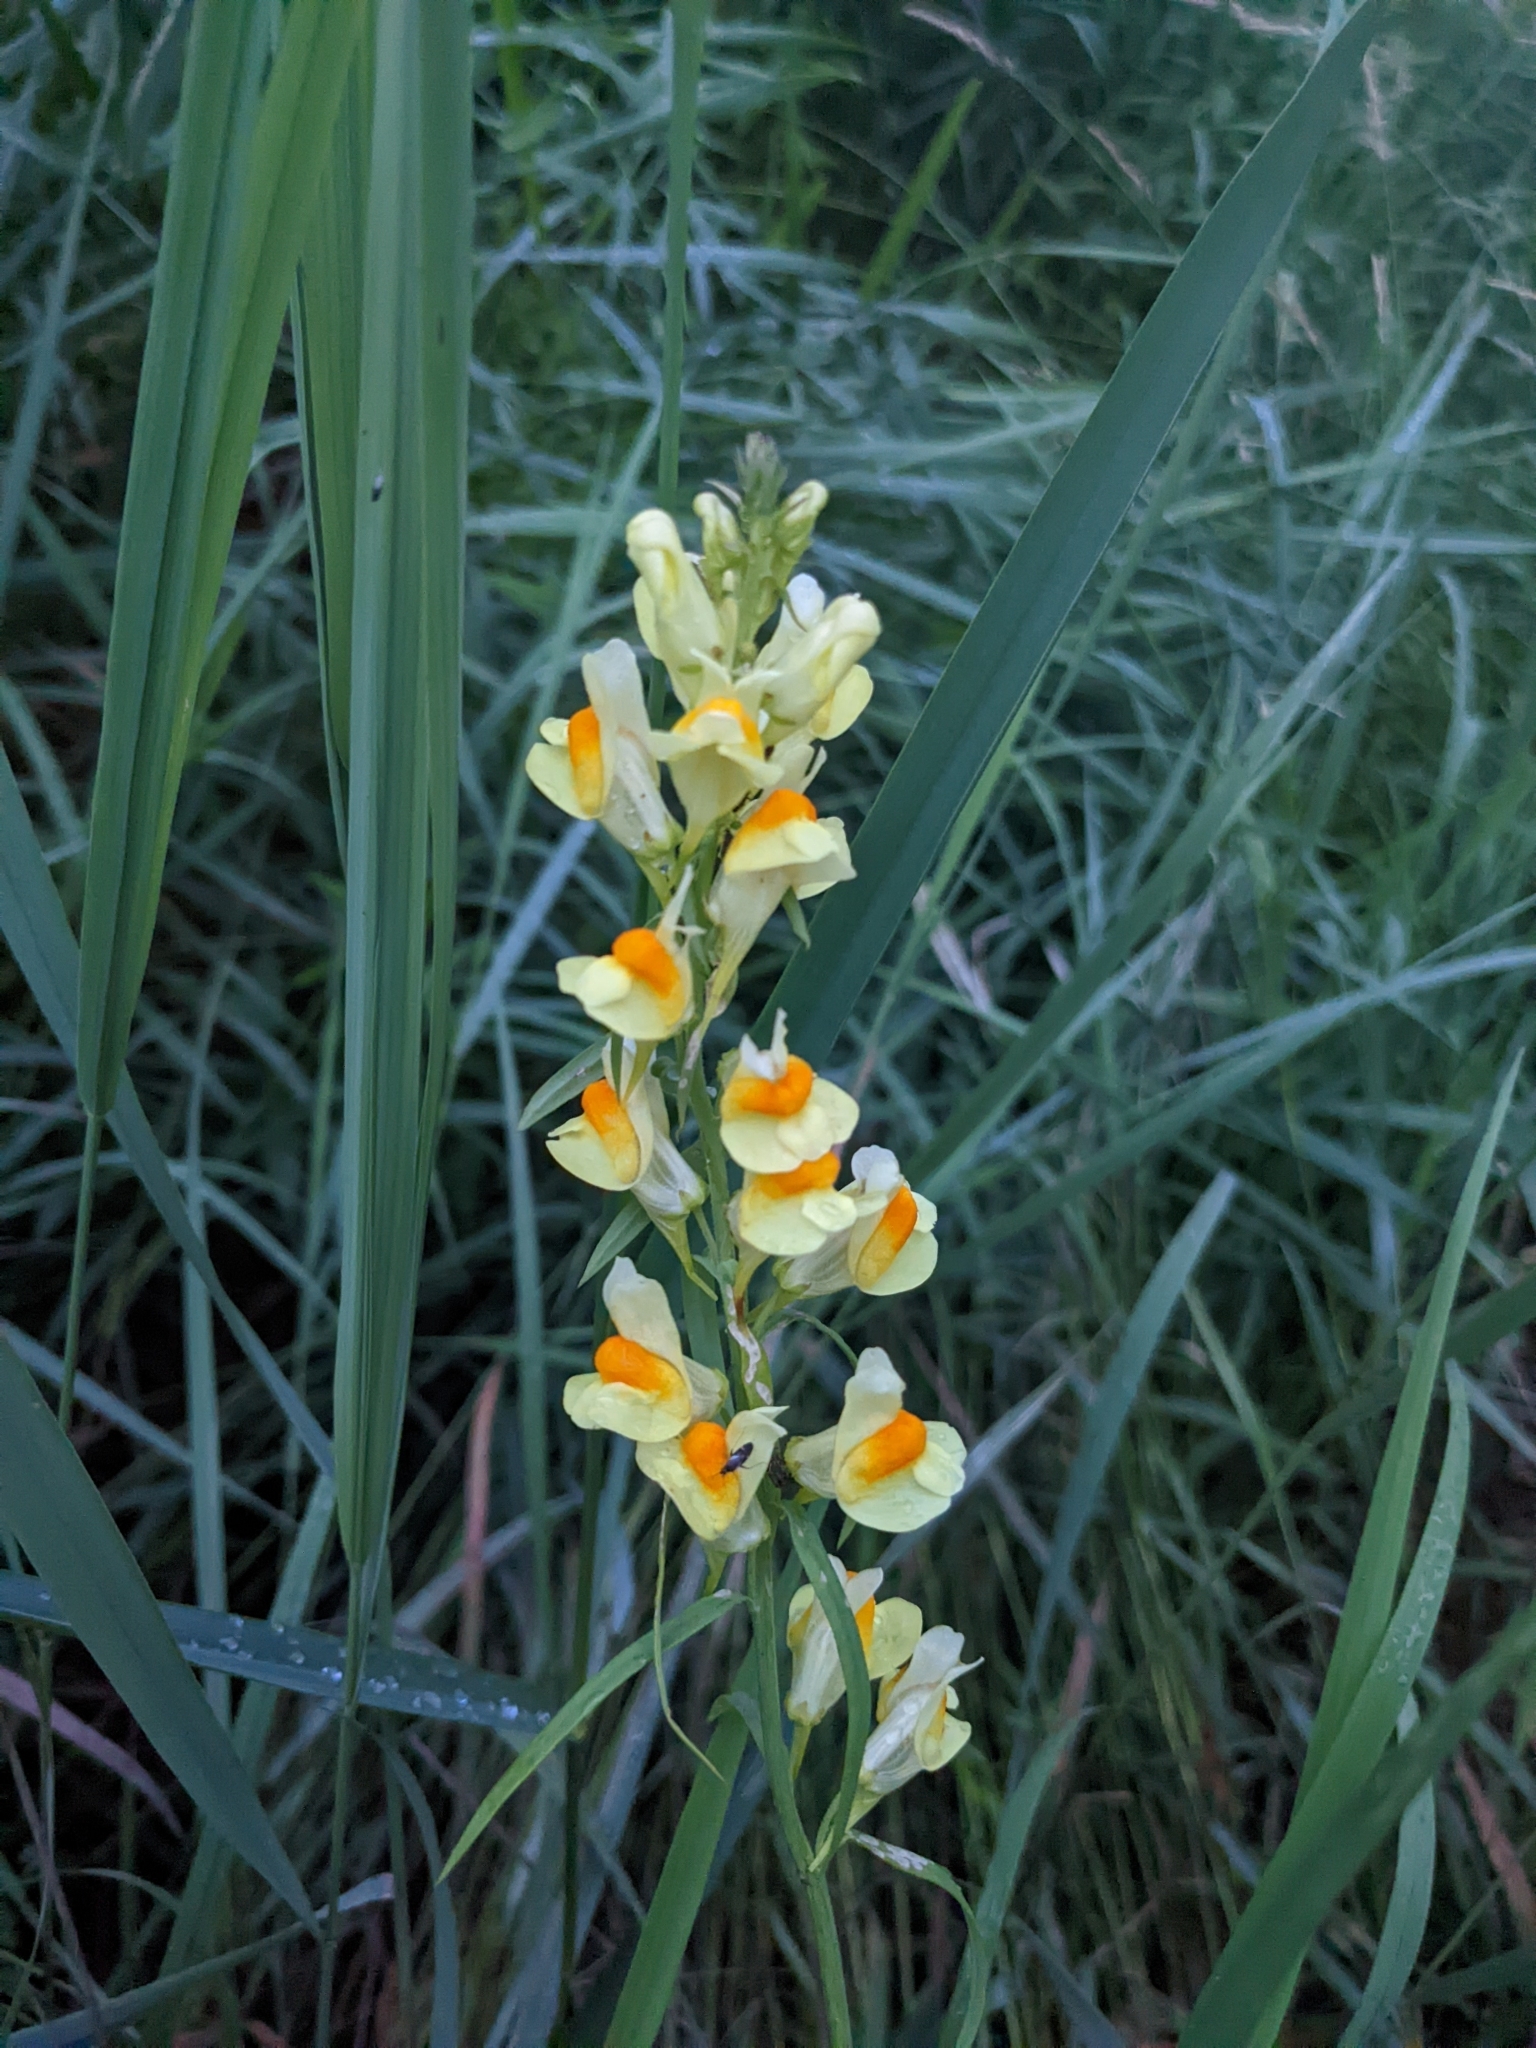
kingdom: Plantae
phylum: Tracheophyta
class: Magnoliopsida
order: Lamiales
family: Plantaginaceae
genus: Linaria
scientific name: Linaria vulgaris
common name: Butter and eggs
